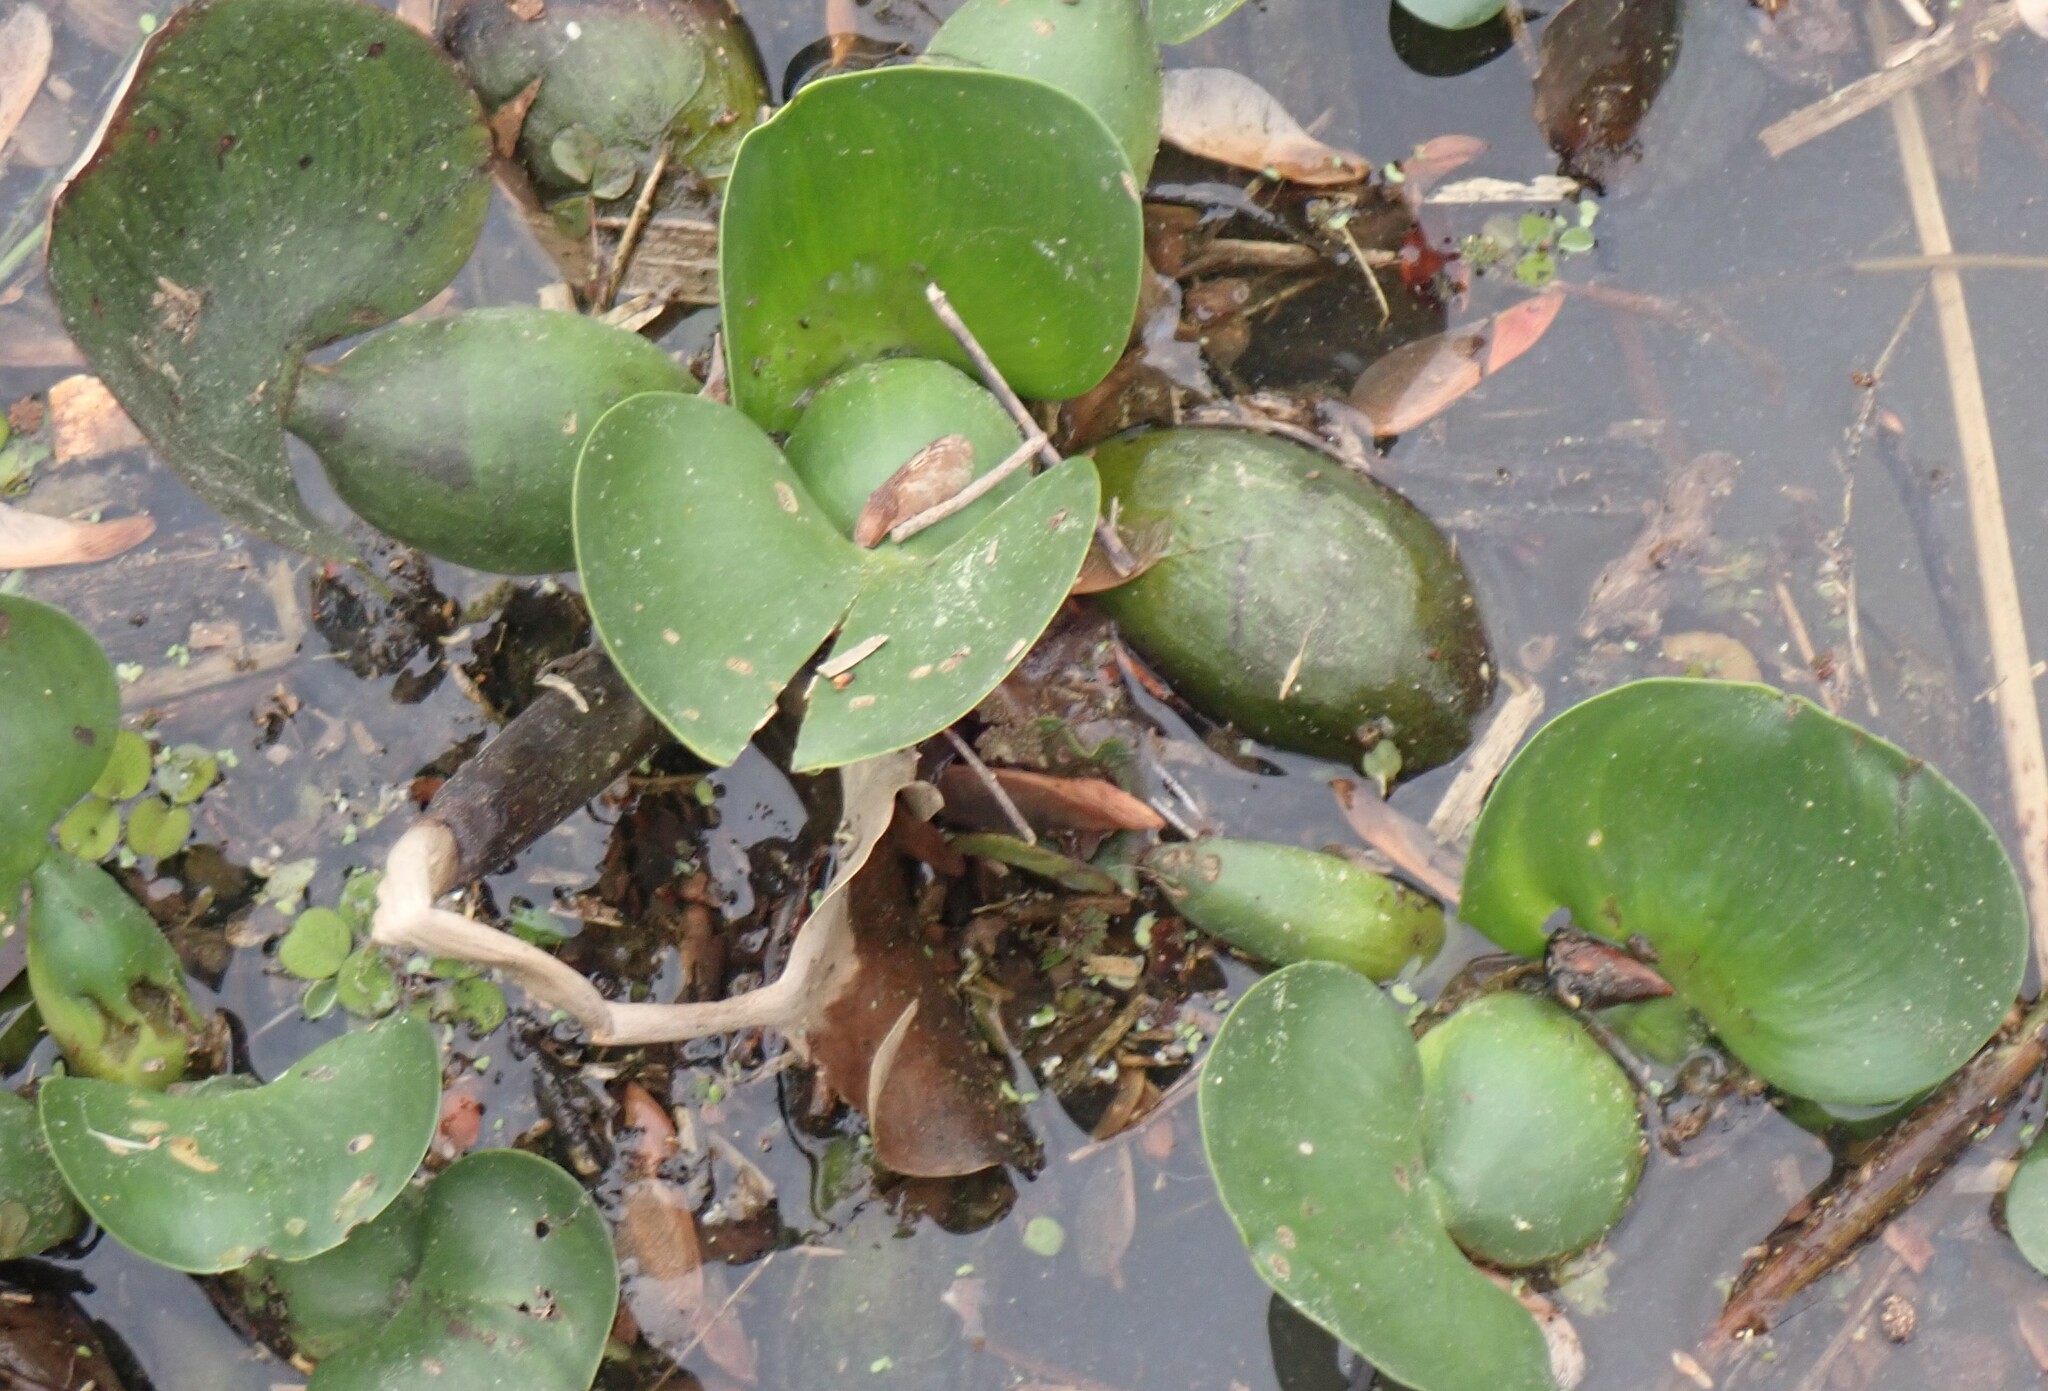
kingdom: Plantae
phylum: Tracheophyta
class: Liliopsida
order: Commelinales
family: Pontederiaceae
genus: Pontederia
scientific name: Pontederia crassipes
